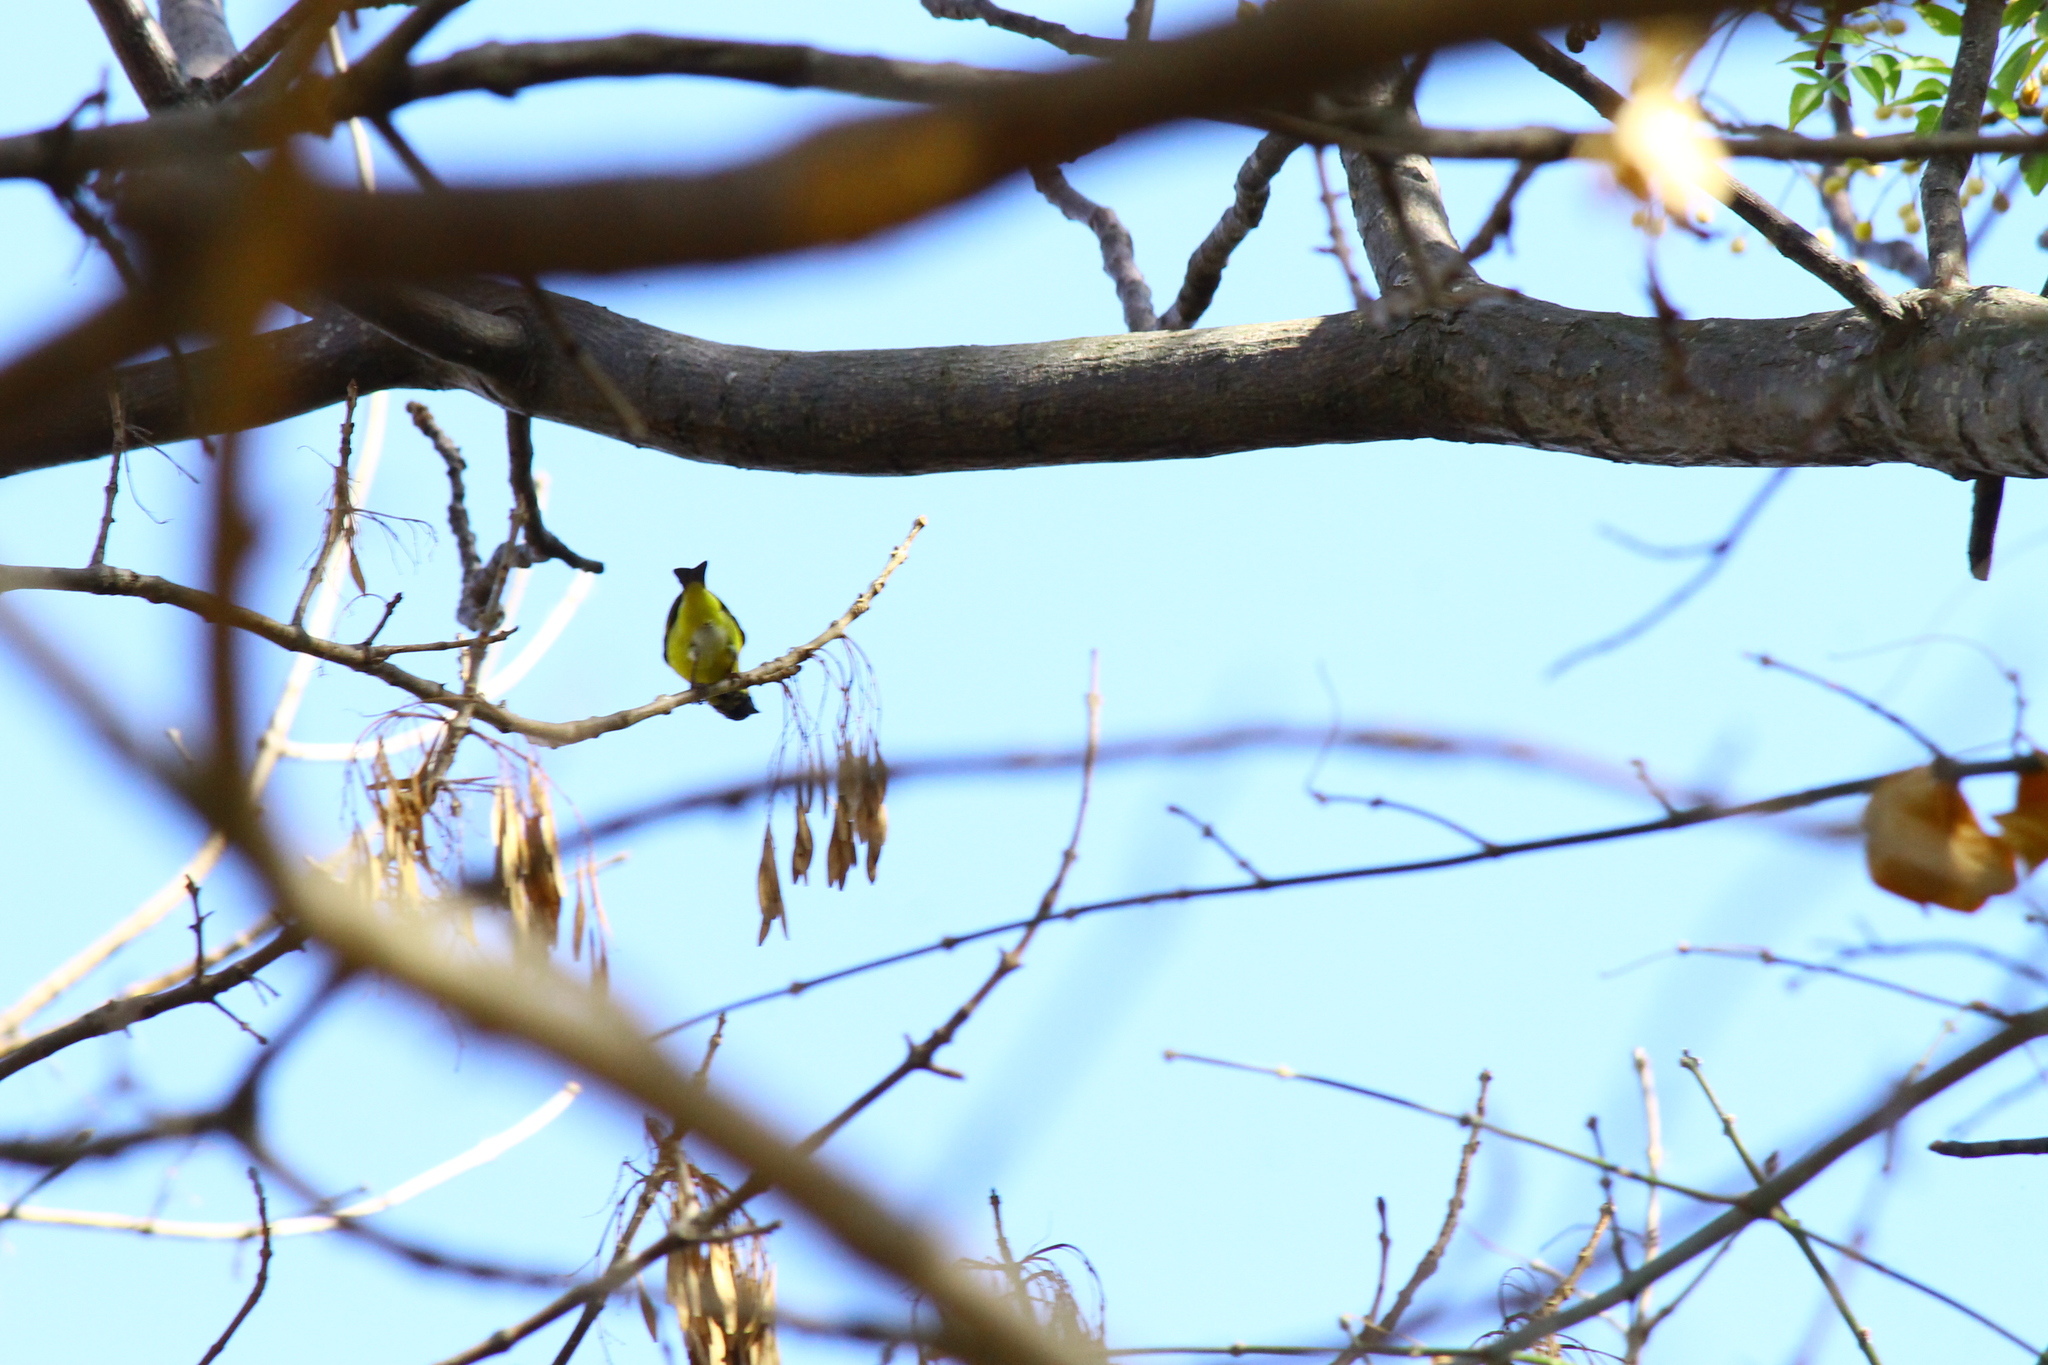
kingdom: Animalia
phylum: Chordata
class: Aves
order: Passeriformes
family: Fringillidae
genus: Spinus
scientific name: Spinus magellanicus
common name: Hooded siskin
